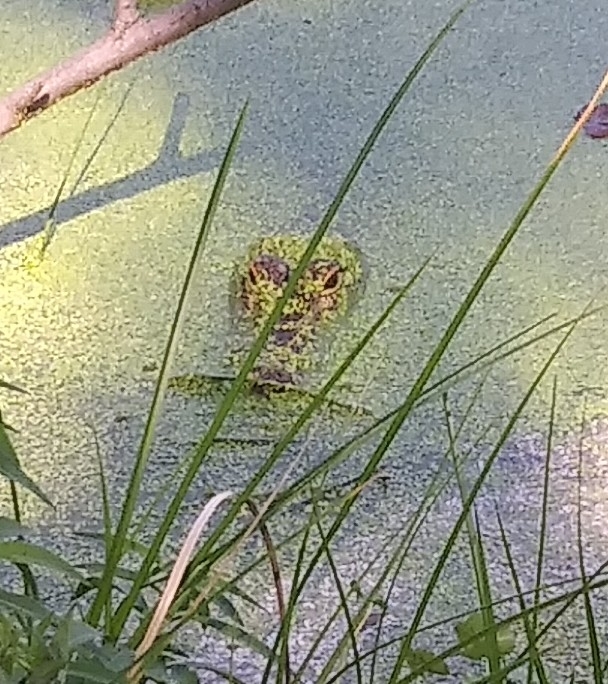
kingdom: Animalia
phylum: Chordata
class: Crocodylia
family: Alligatoridae
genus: Alligator
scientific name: Alligator mississippiensis
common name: American alligator
